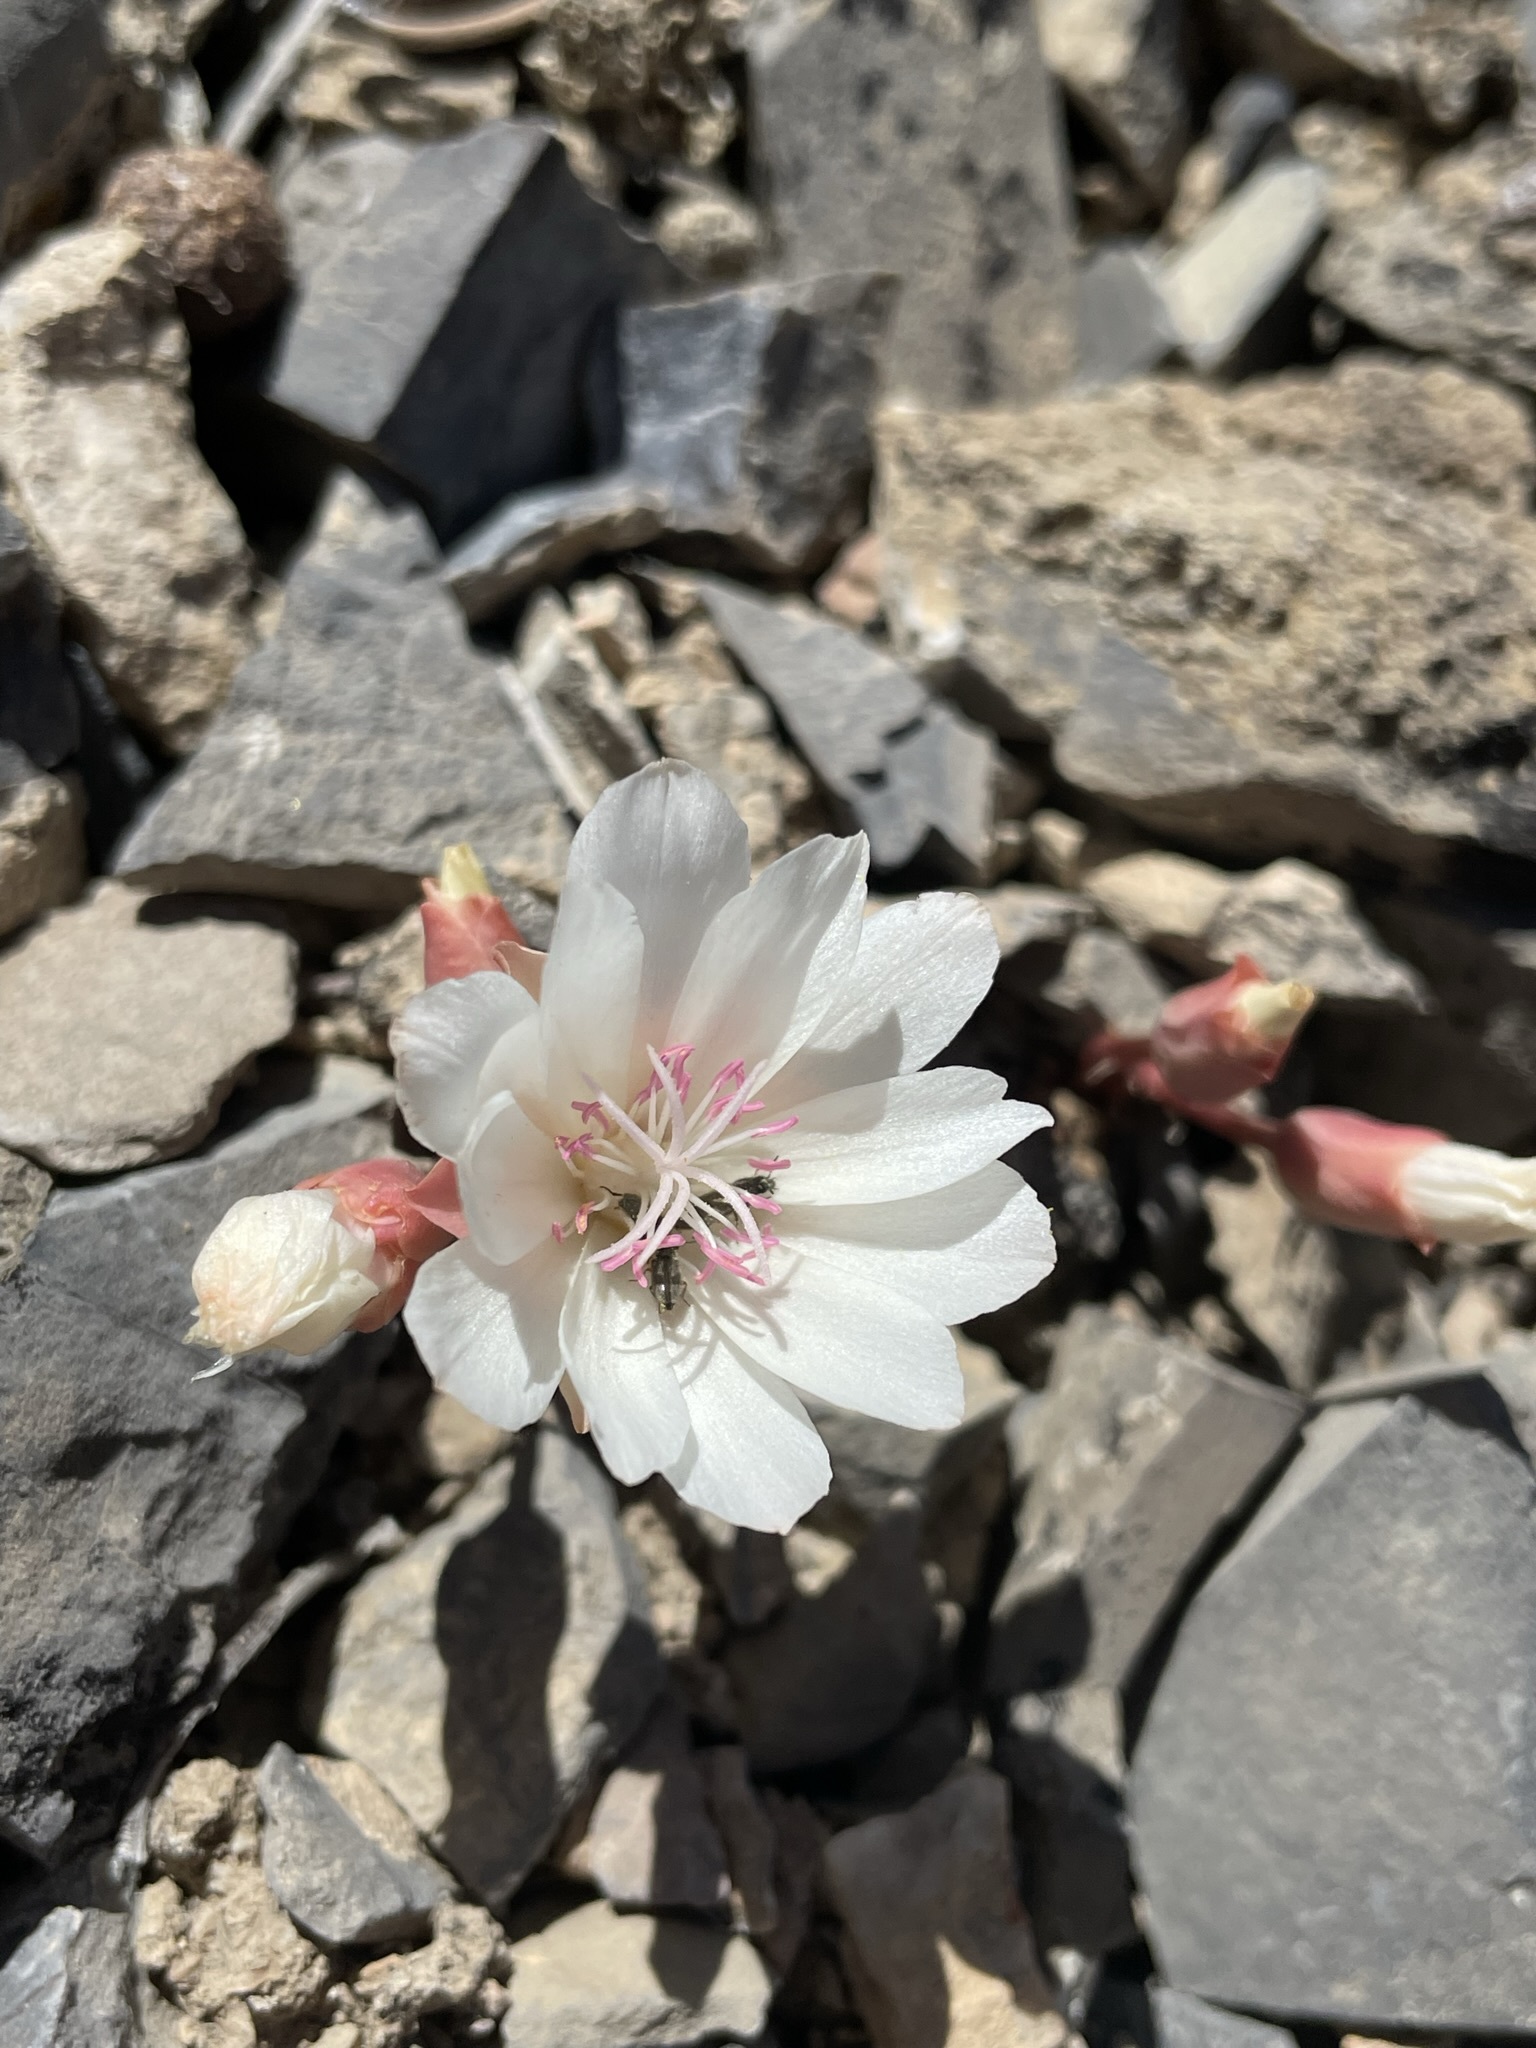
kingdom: Plantae
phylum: Tracheophyta
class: Magnoliopsida
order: Caryophyllales
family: Montiaceae
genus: Lewisia
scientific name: Lewisia rediviva
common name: Bitter-root
